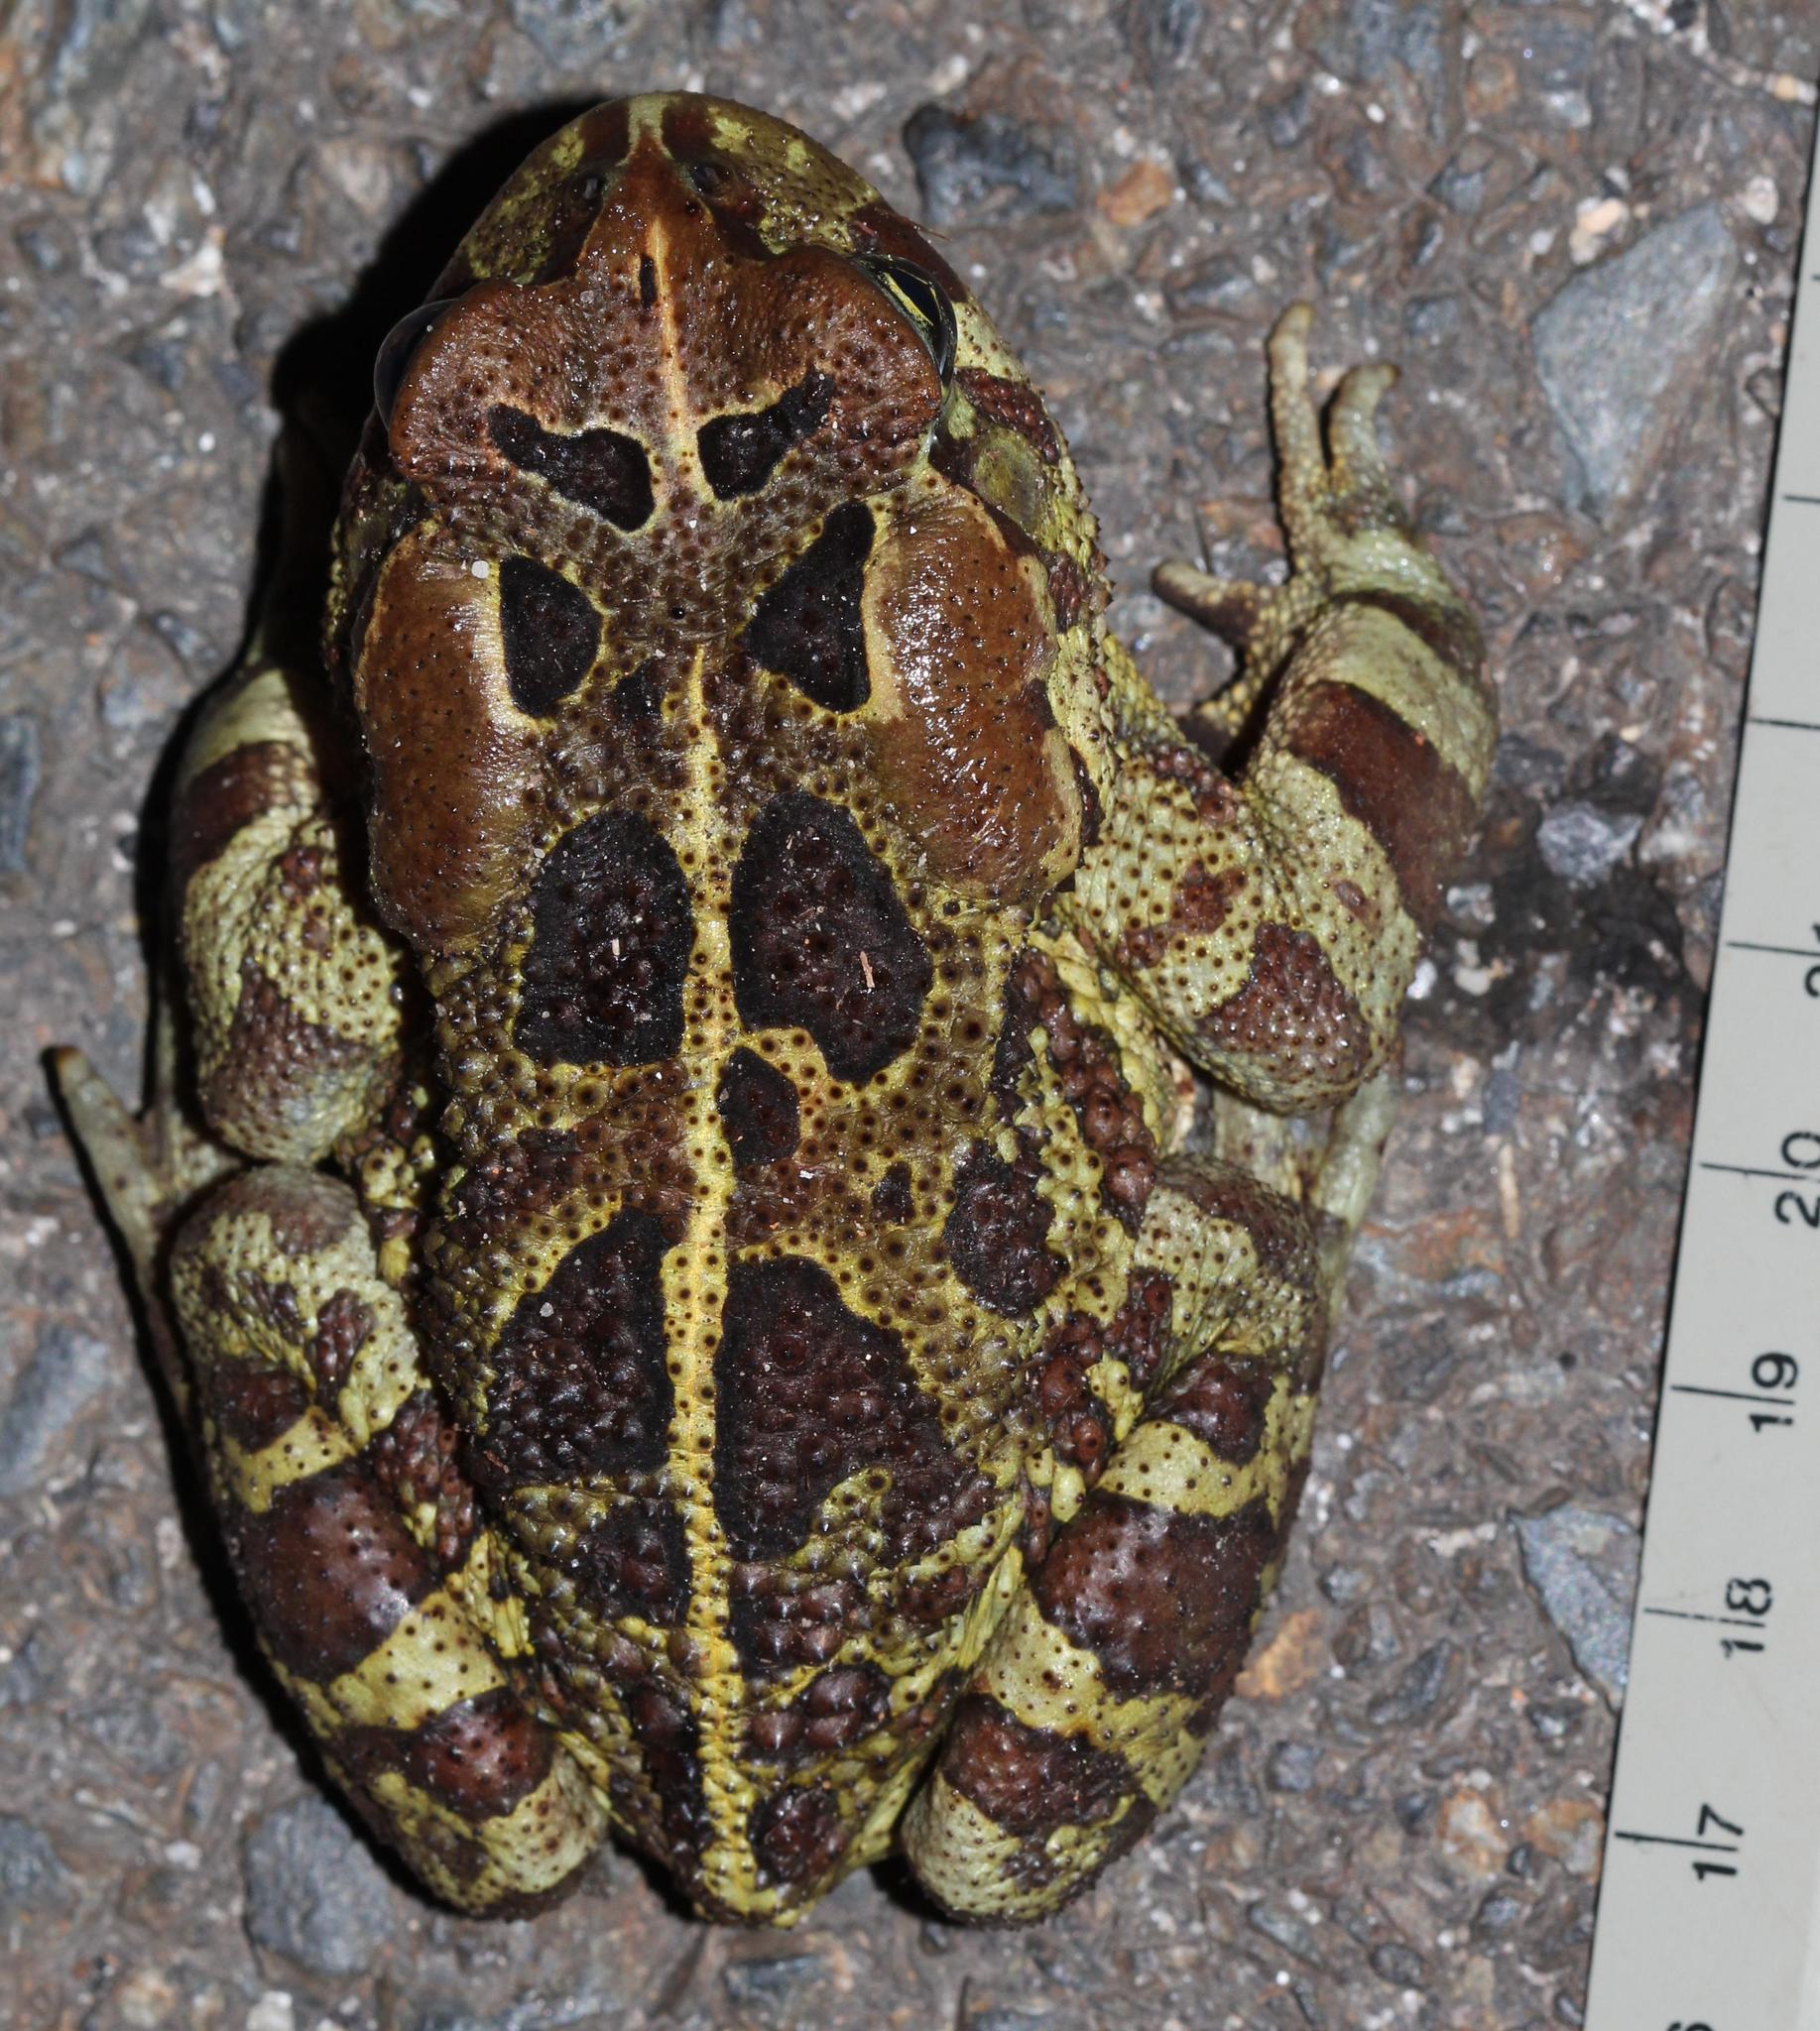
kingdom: Animalia
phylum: Chordata
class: Amphibia
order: Anura
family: Bufonidae
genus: Sclerophrys
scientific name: Sclerophrys pantherina
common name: Panther toad
